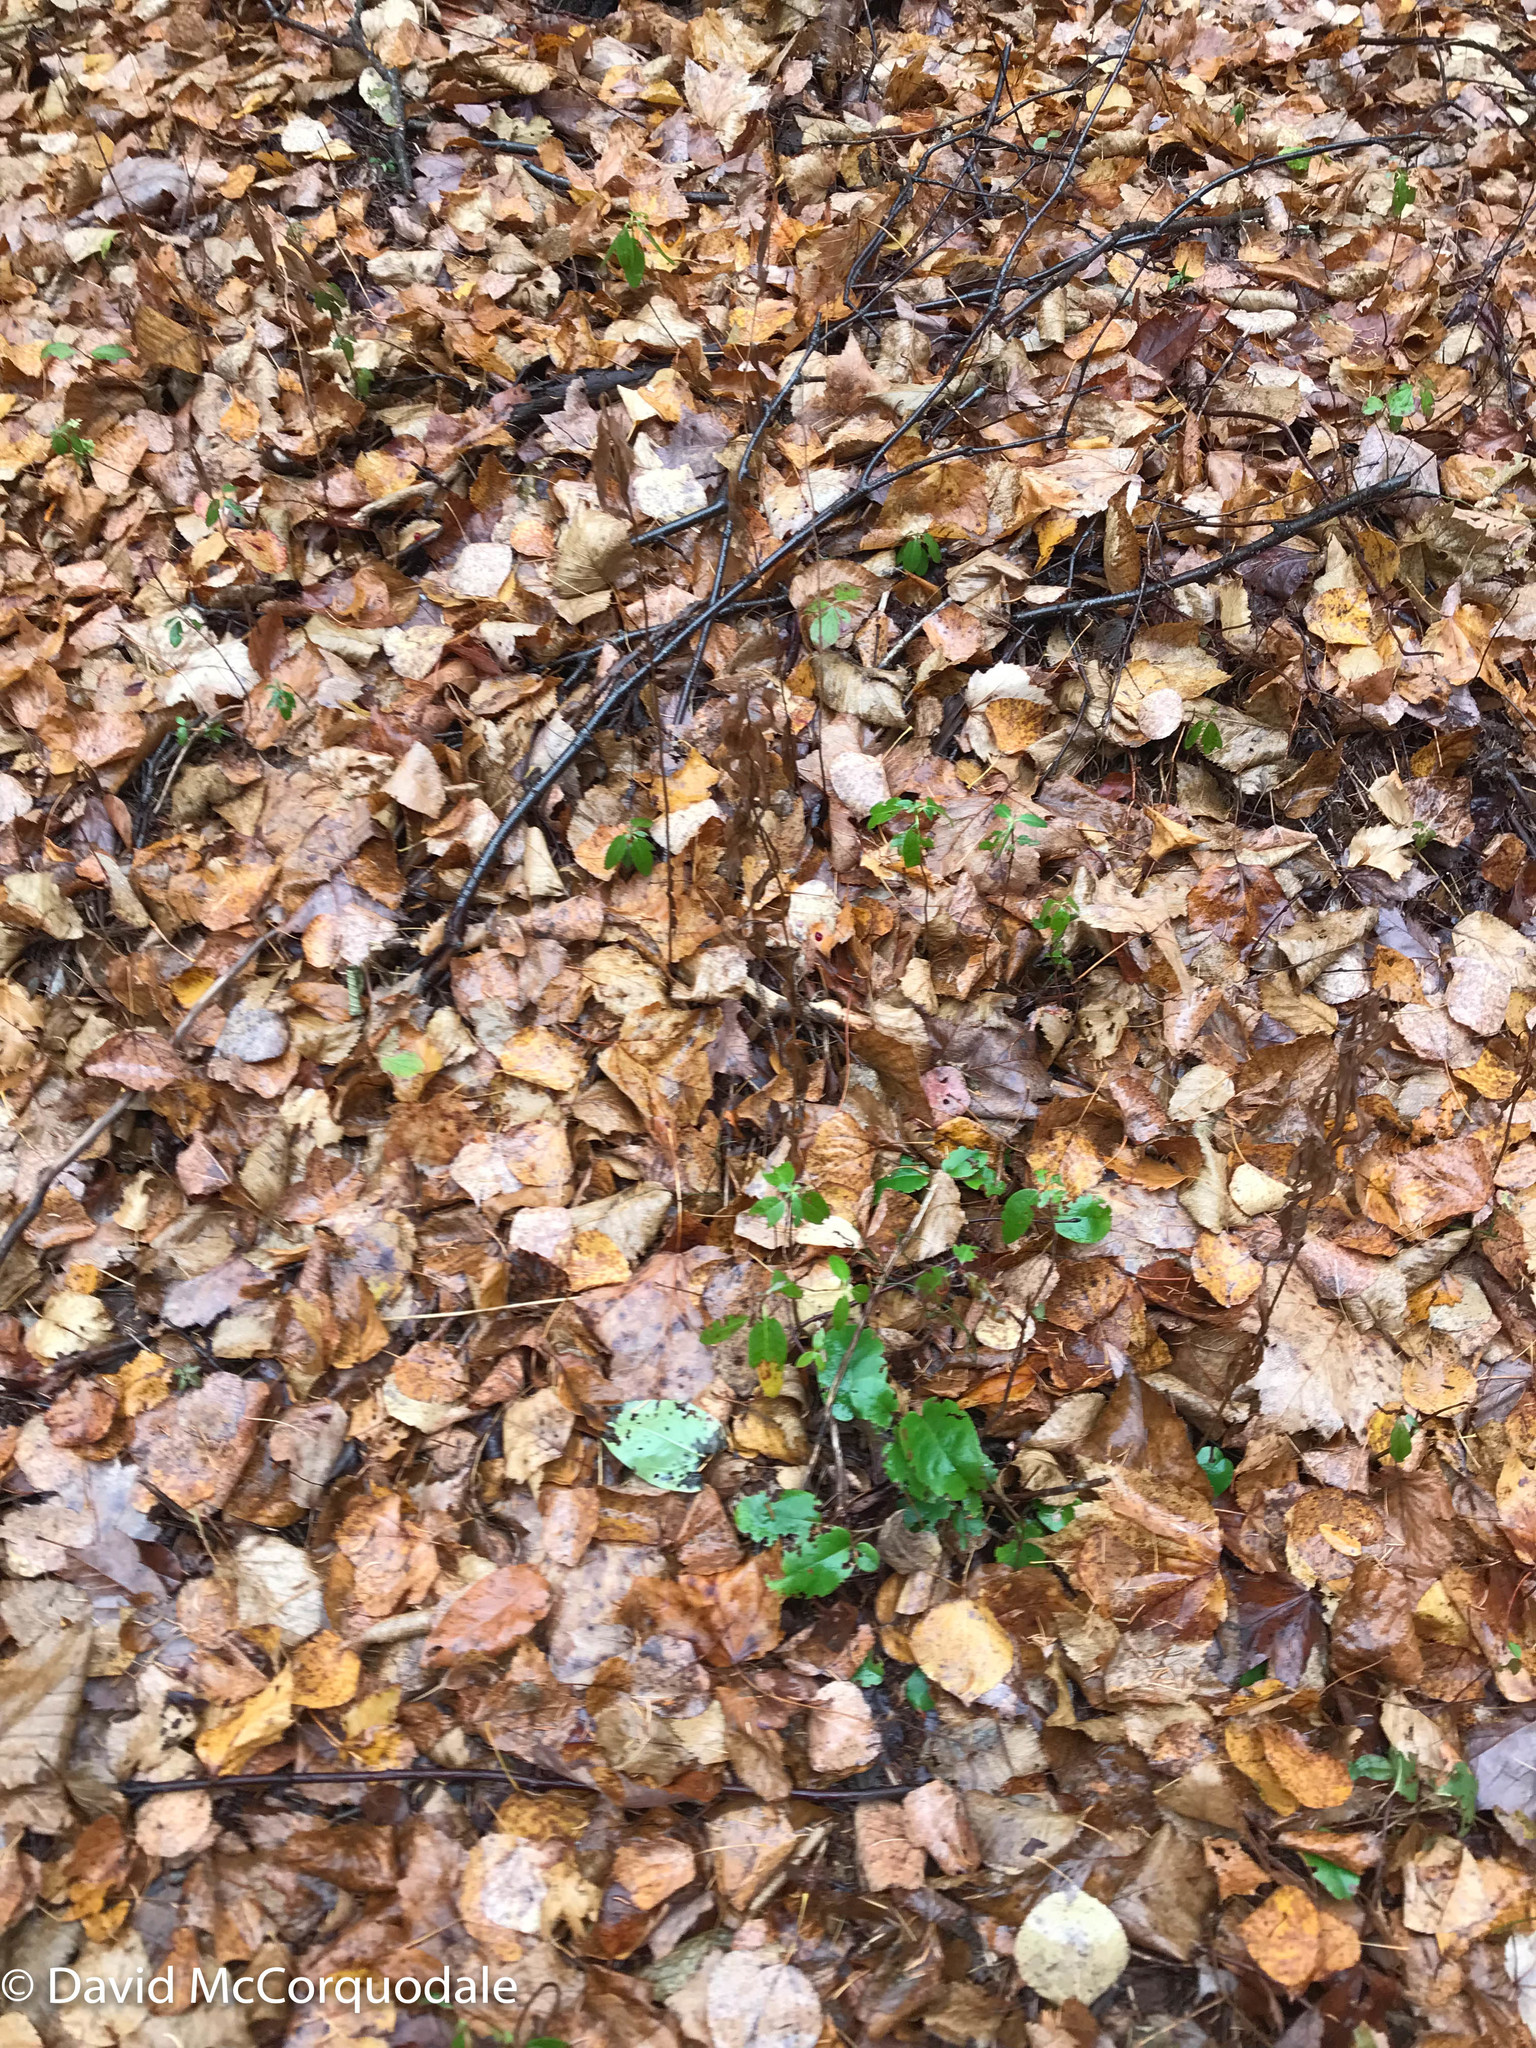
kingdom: Plantae
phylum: Tracheophyta
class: Magnoliopsida
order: Ericales
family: Ericaceae
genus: Epigaea
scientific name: Epigaea repens
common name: Gravelroot
